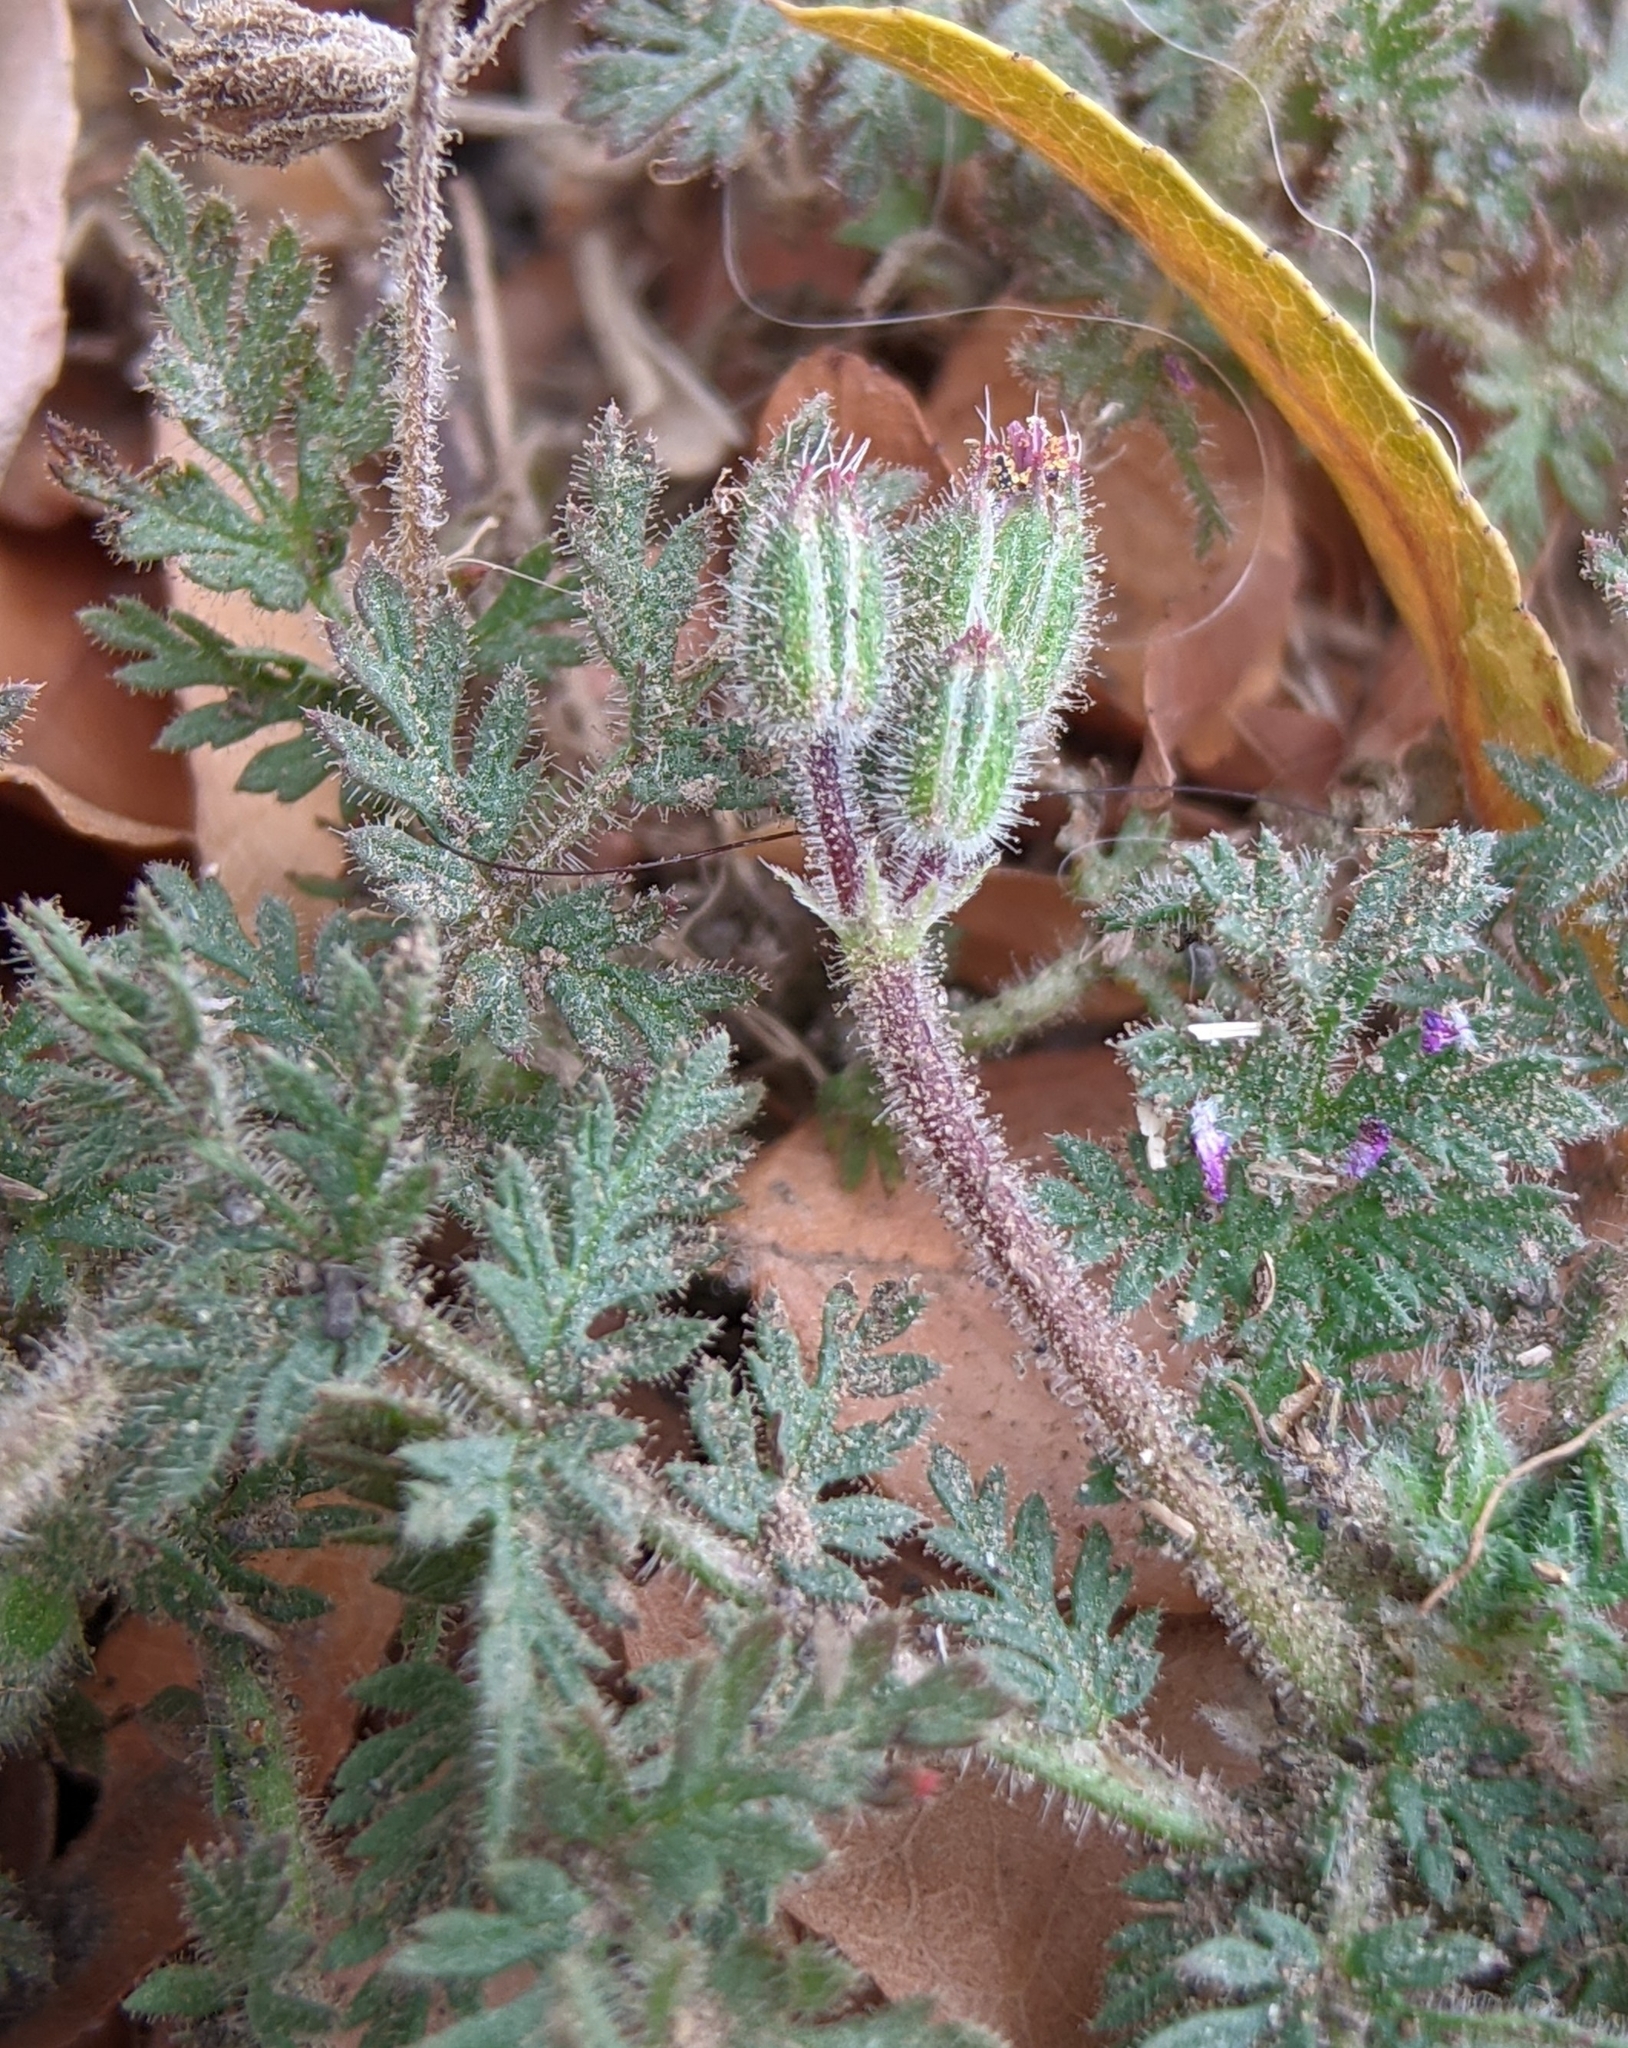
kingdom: Plantae
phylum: Tracheophyta
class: Magnoliopsida
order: Geraniales
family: Geraniaceae
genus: Erodium
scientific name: Erodium cicutarium
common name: Common stork's-bill
